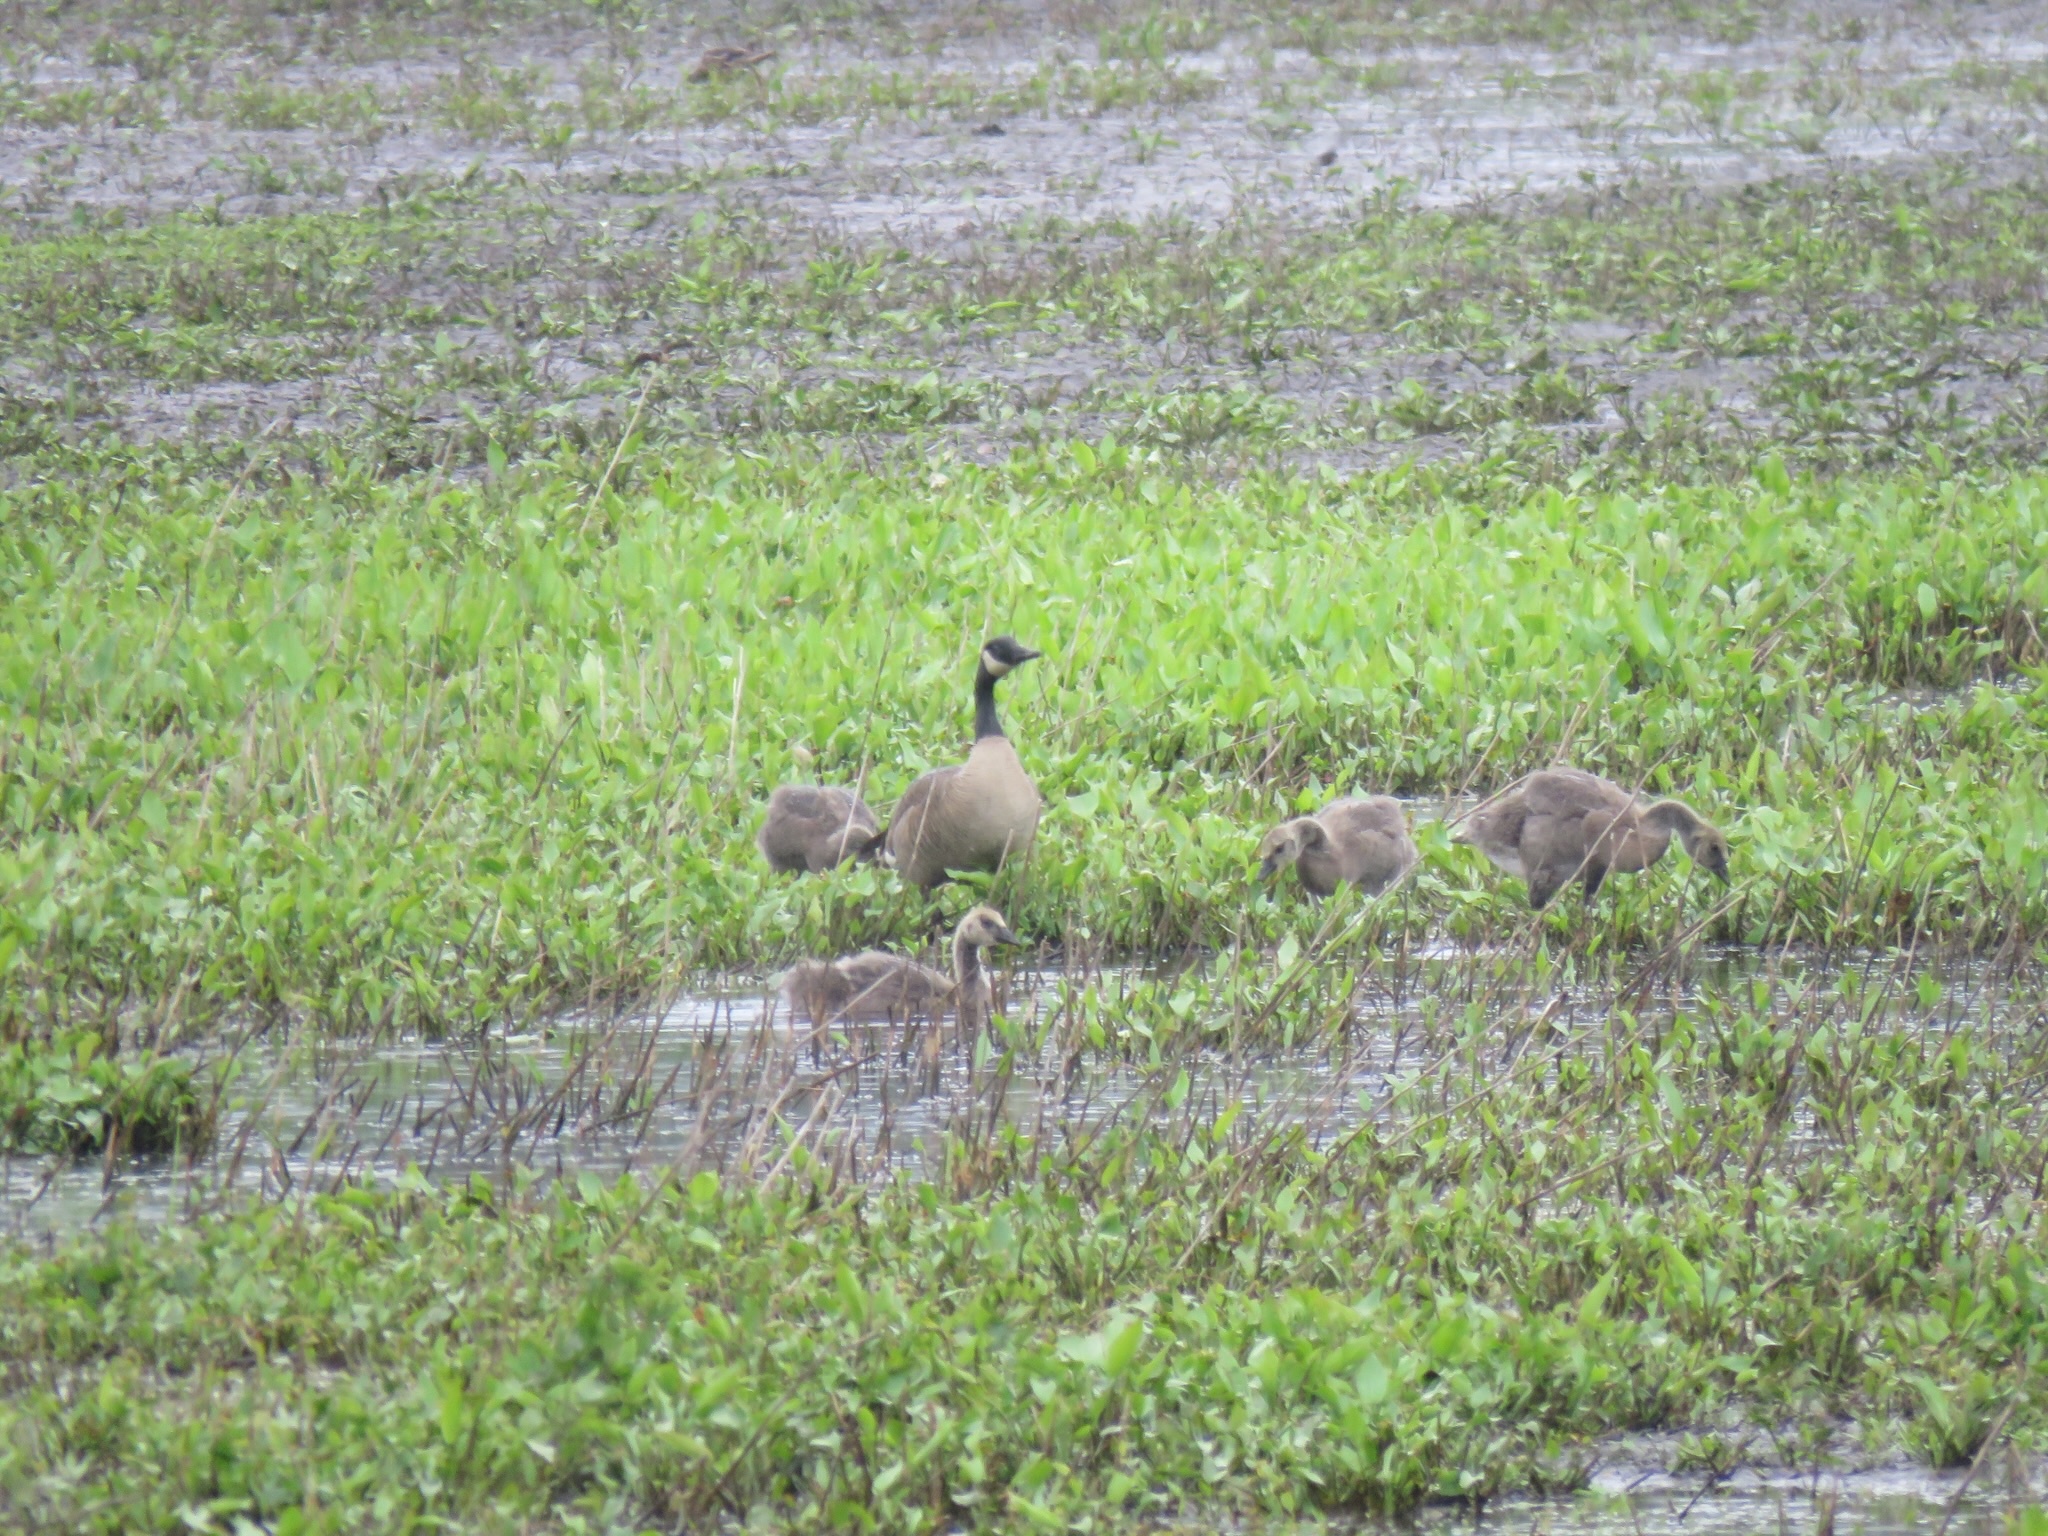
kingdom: Animalia
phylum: Chordata
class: Aves
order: Anseriformes
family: Anatidae
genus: Branta
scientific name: Branta canadensis
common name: Canada goose
